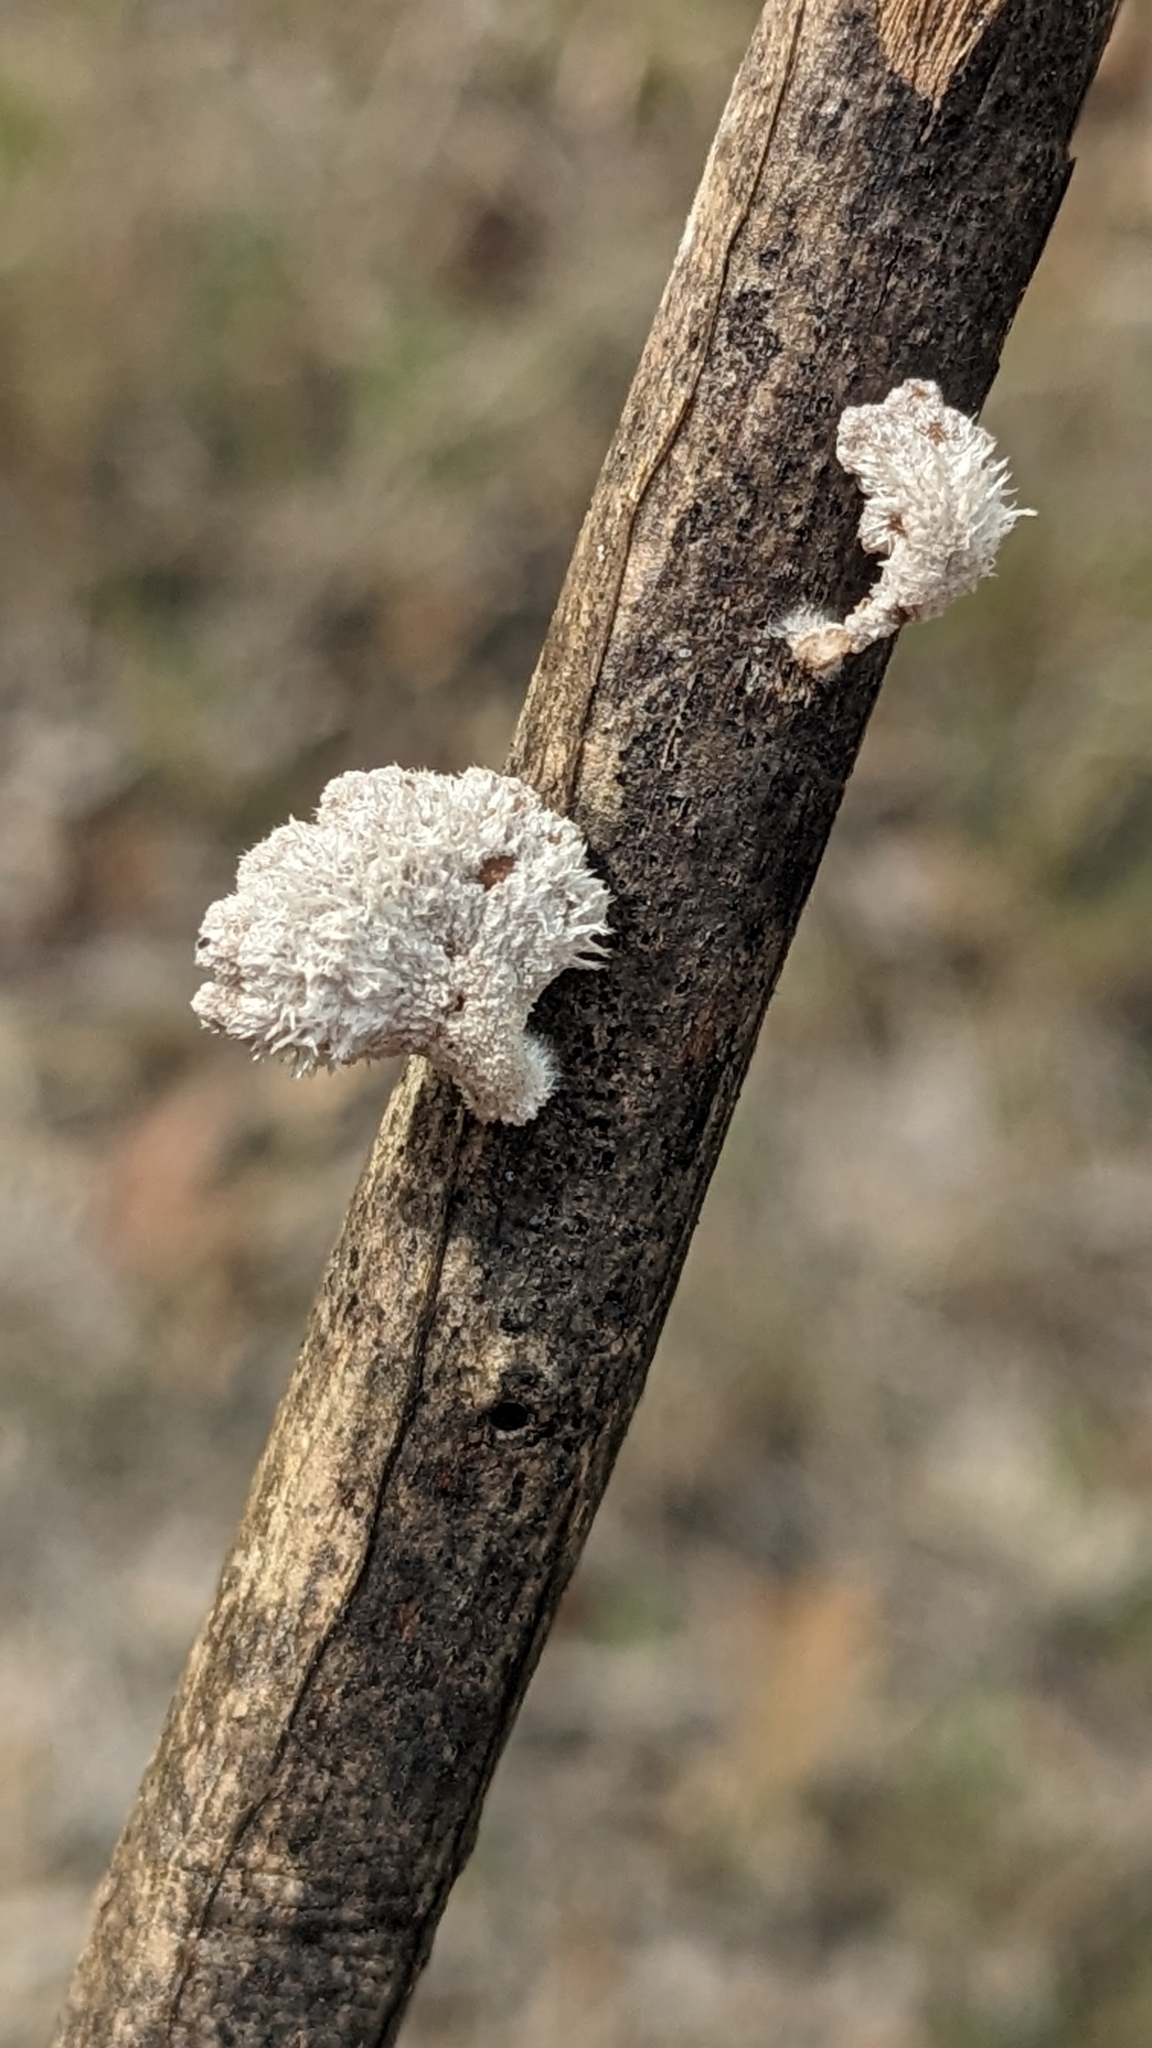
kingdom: Fungi
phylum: Basidiomycota
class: Agaricomycetes
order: Agaricales
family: Schizophyllaceae
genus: Schizophyllum
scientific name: Schizophyllum commune
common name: Common porecrust
